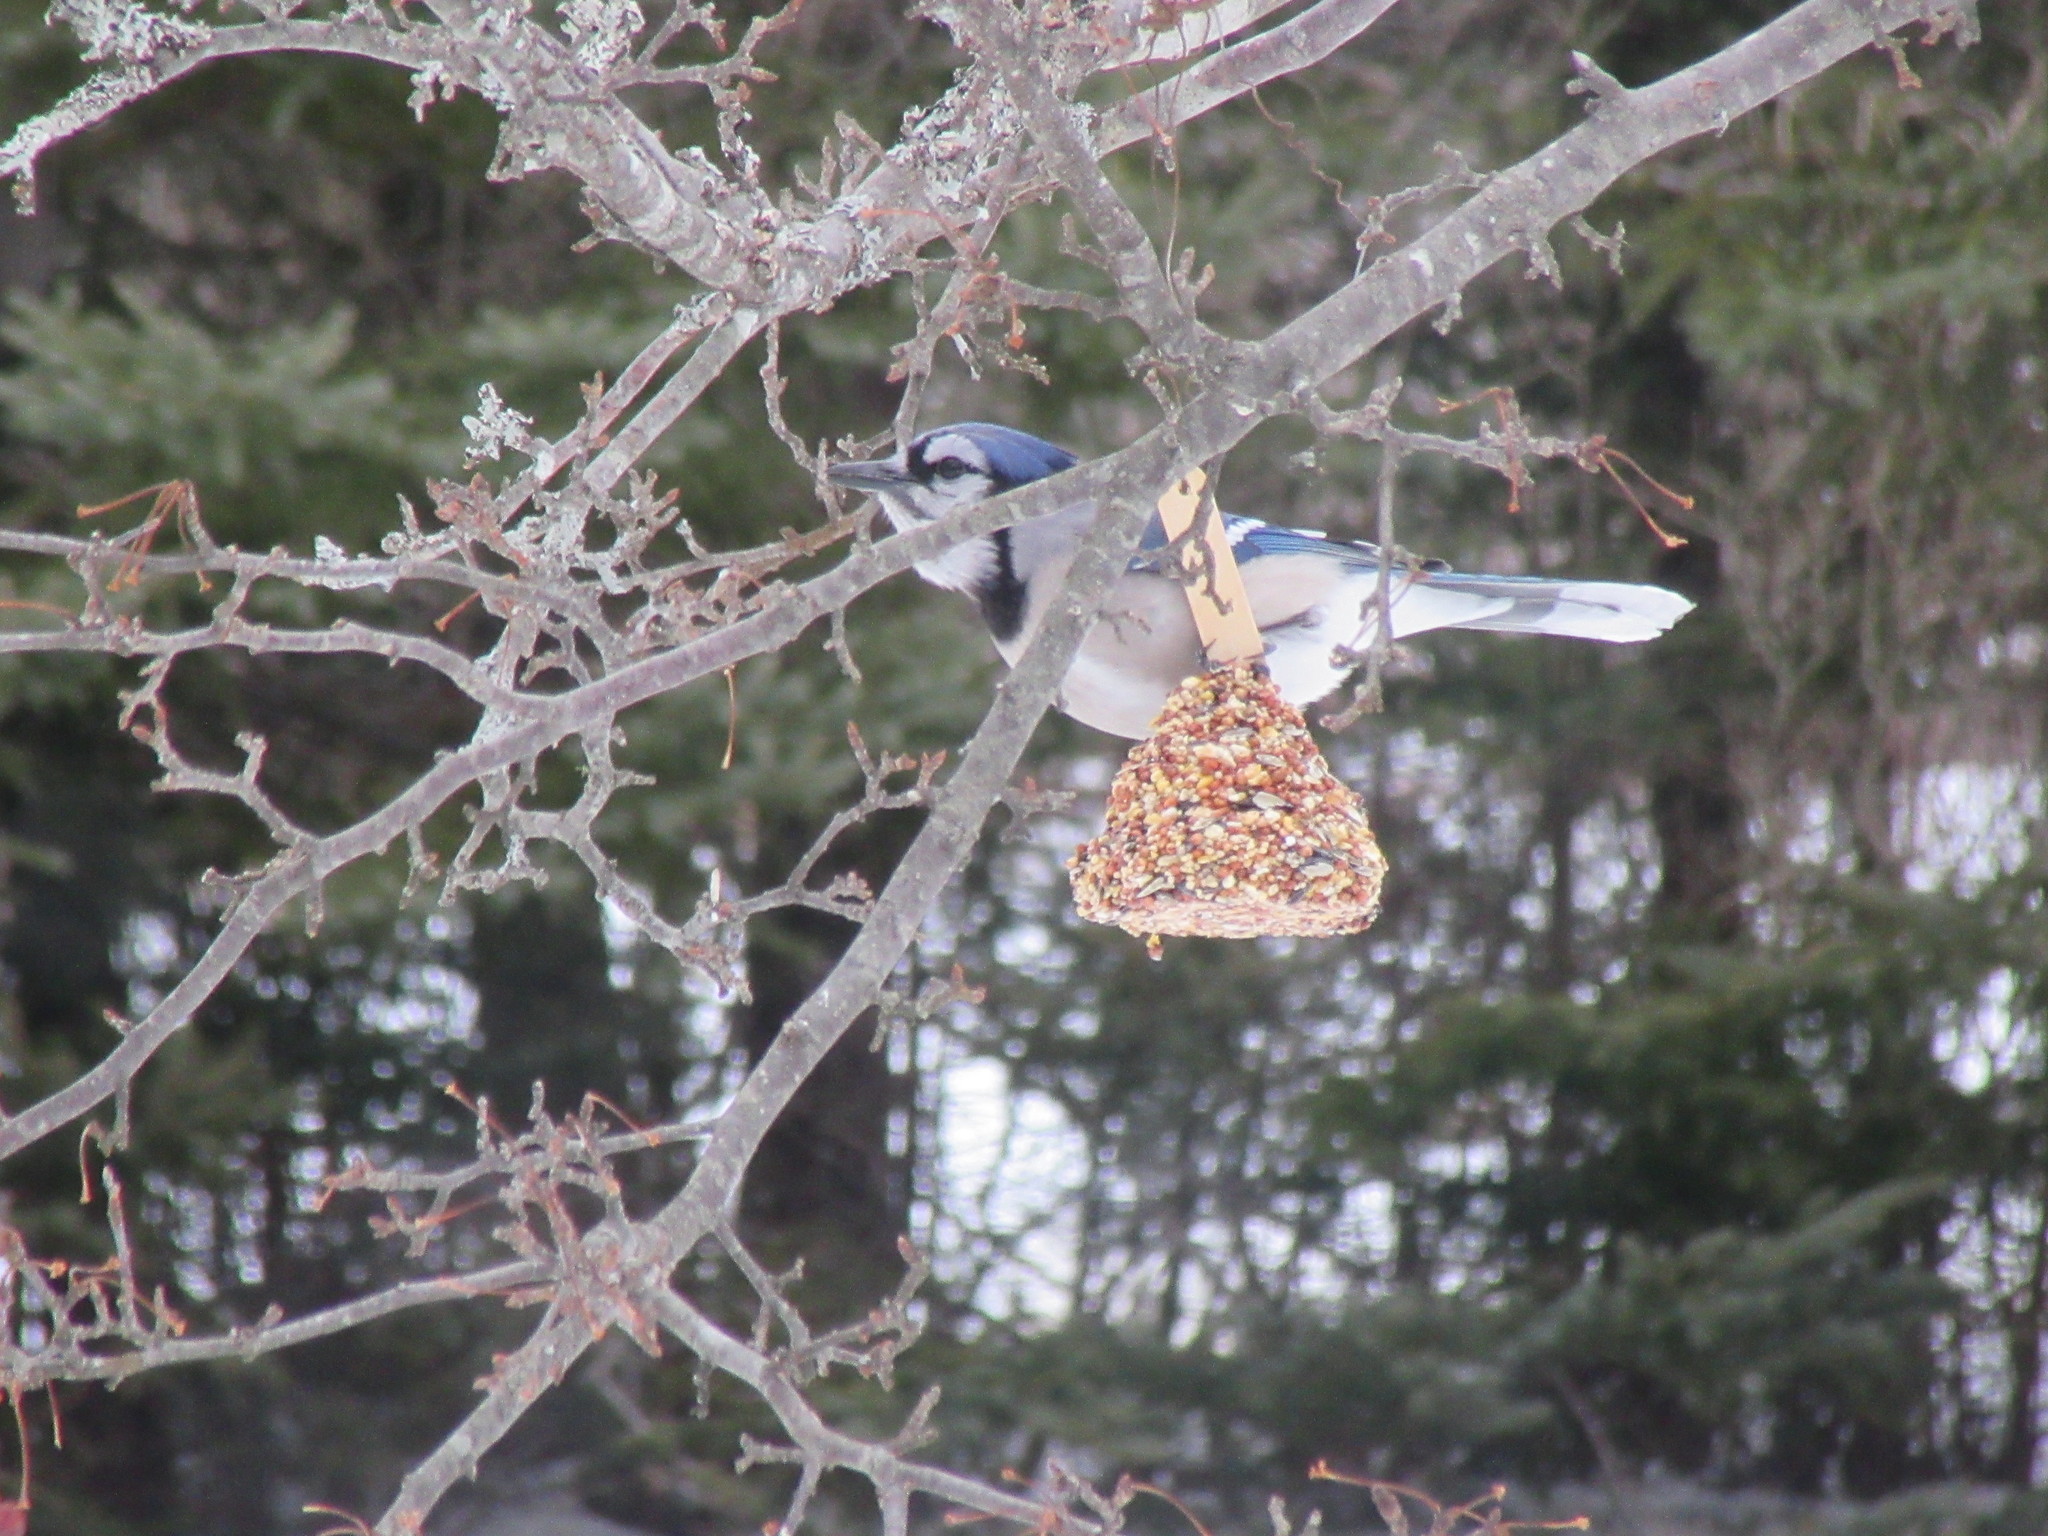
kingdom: Animalia
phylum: Chordata
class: Aves
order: Passeriformes
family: Corvidae
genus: Cyanocitta
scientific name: Cyanocitta cristata
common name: Blue jay
